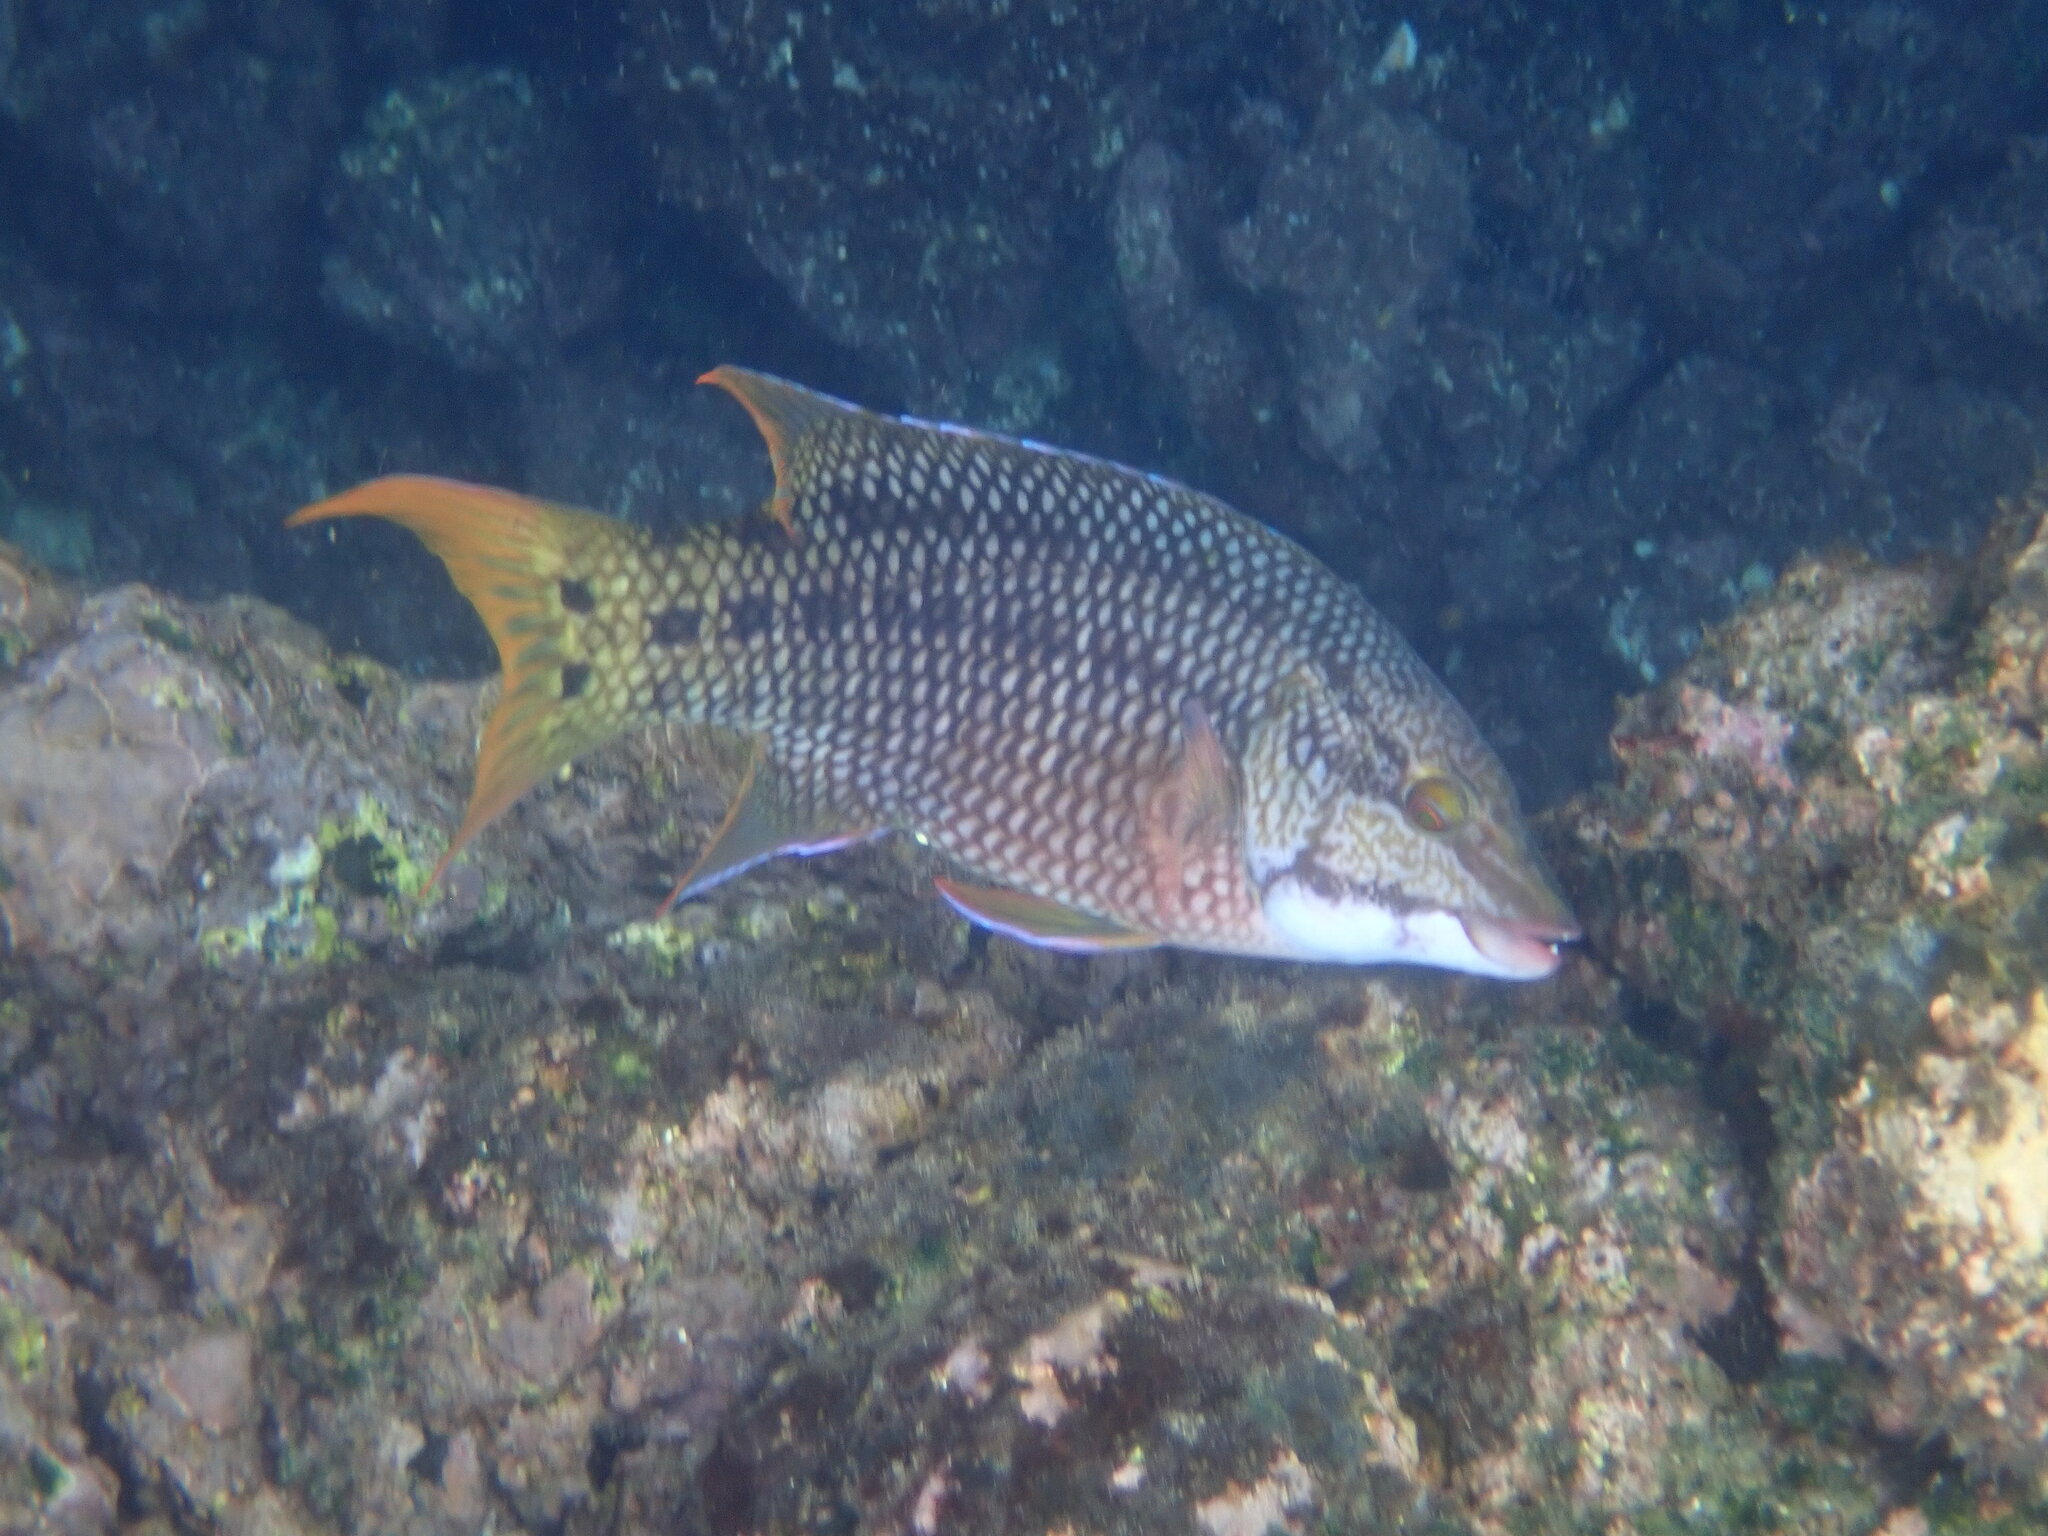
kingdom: Animalia
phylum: Chordata
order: Perciformes
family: Labridae
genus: Bodianus
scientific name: Bodianus diplotaenia
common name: Mexican hogfish
